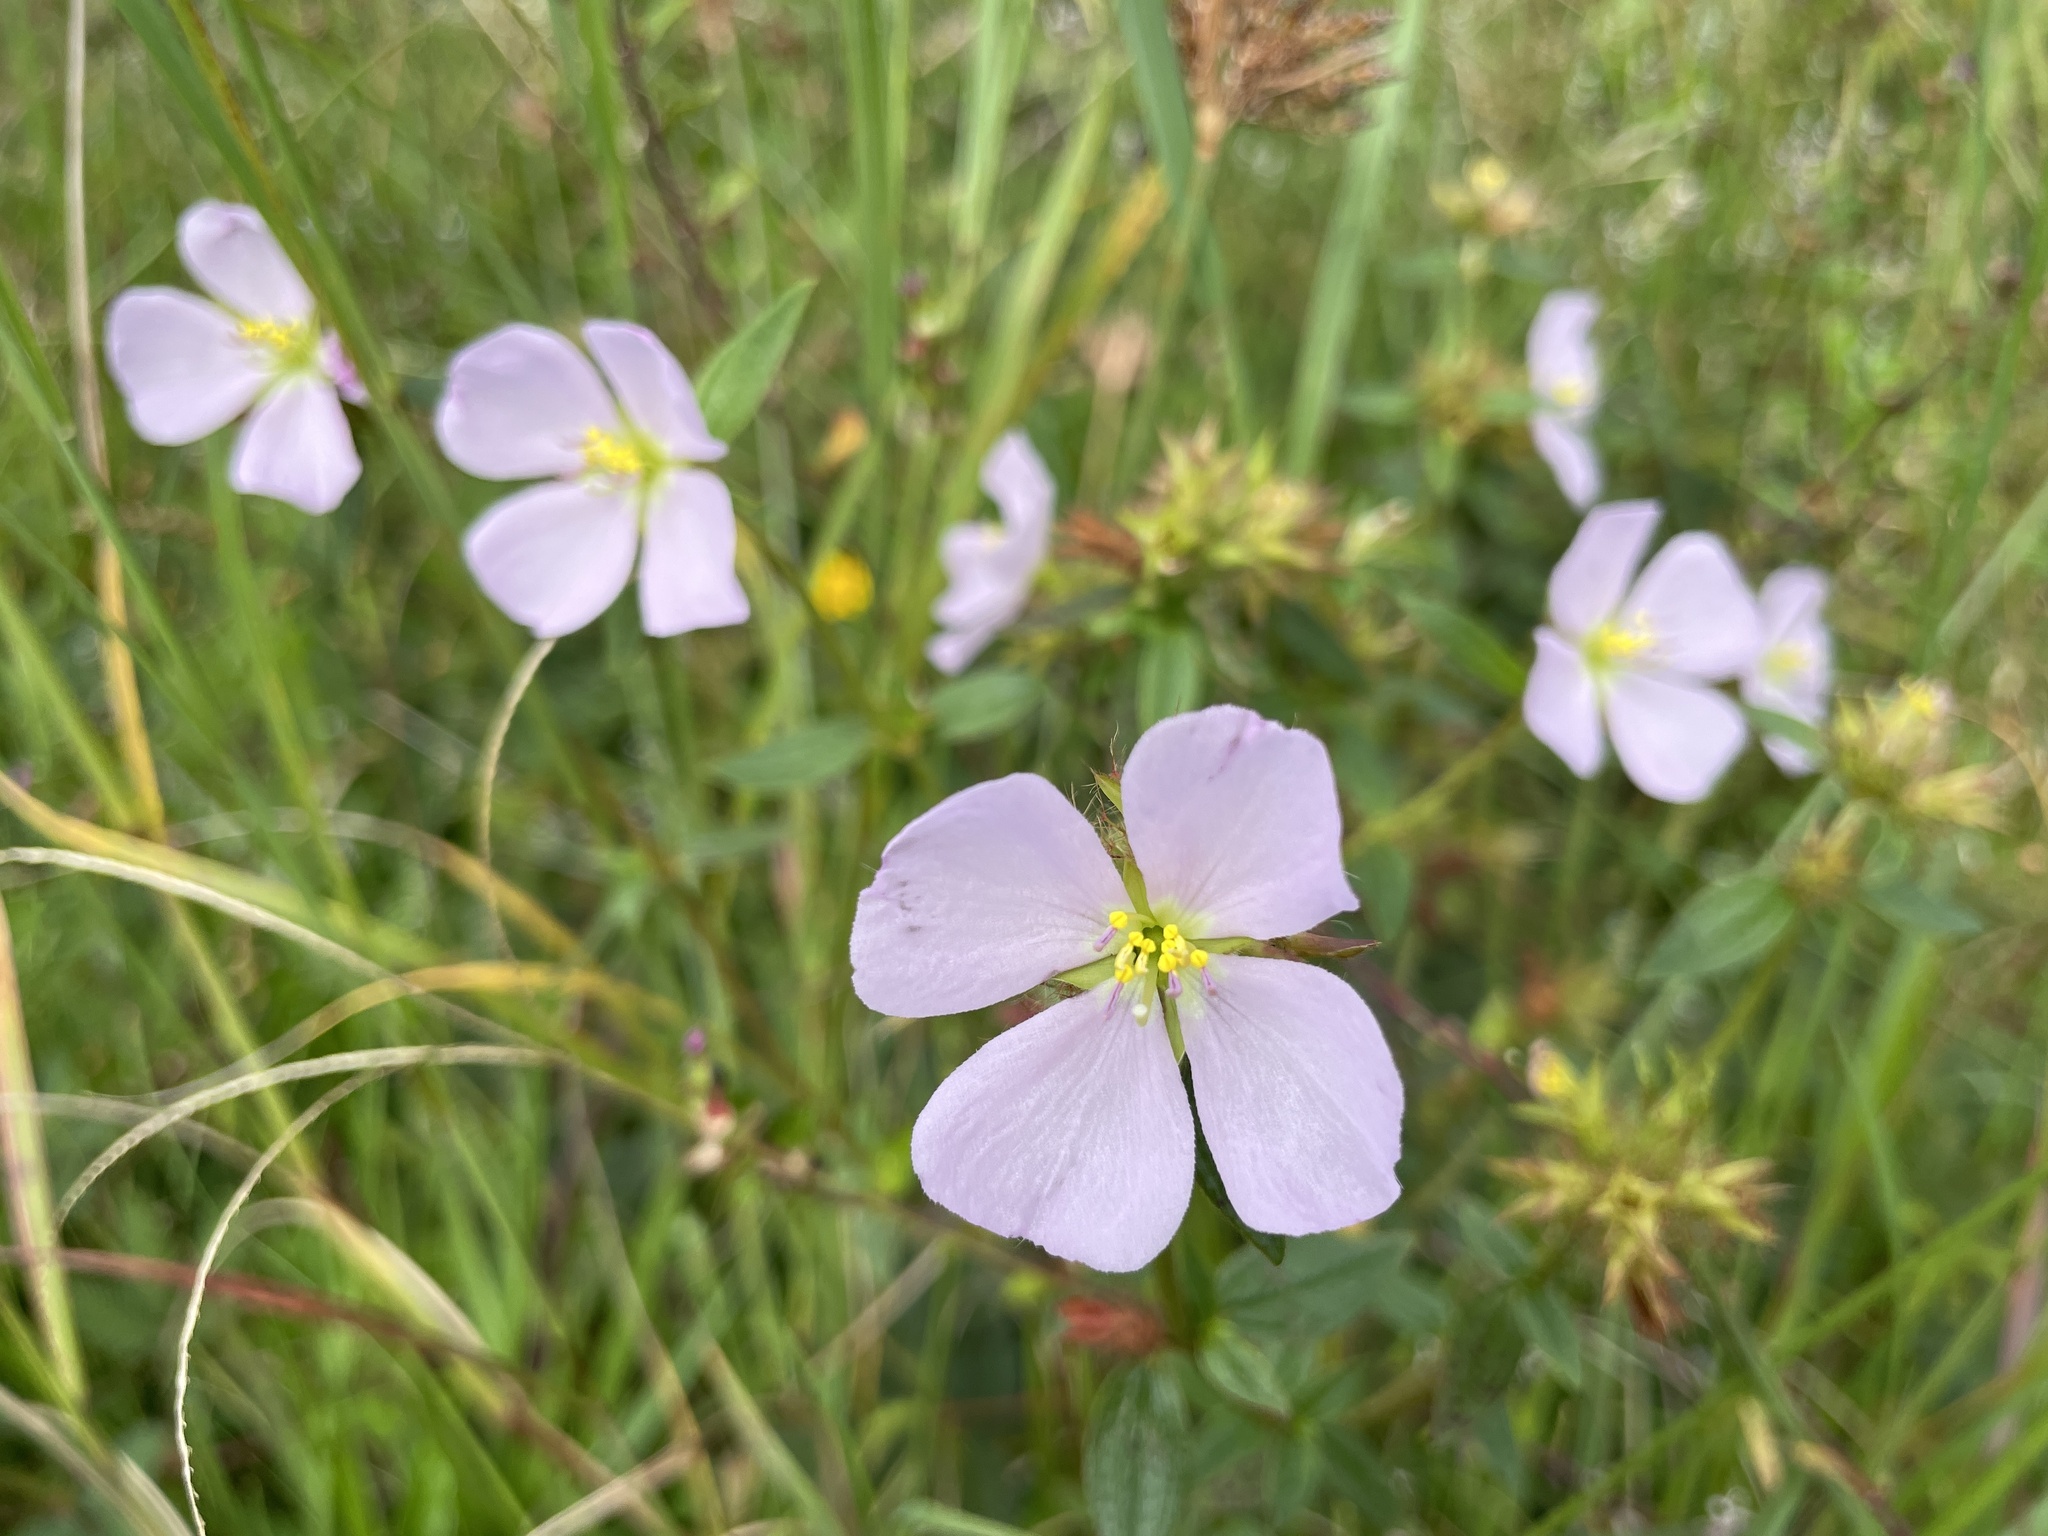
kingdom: Plantae
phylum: Tracheophyta
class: Magnoliopsida
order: Myrtales
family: Melastomataceae
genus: Pterolepis
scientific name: Pterolepis glomerata
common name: False meadowbeauty
